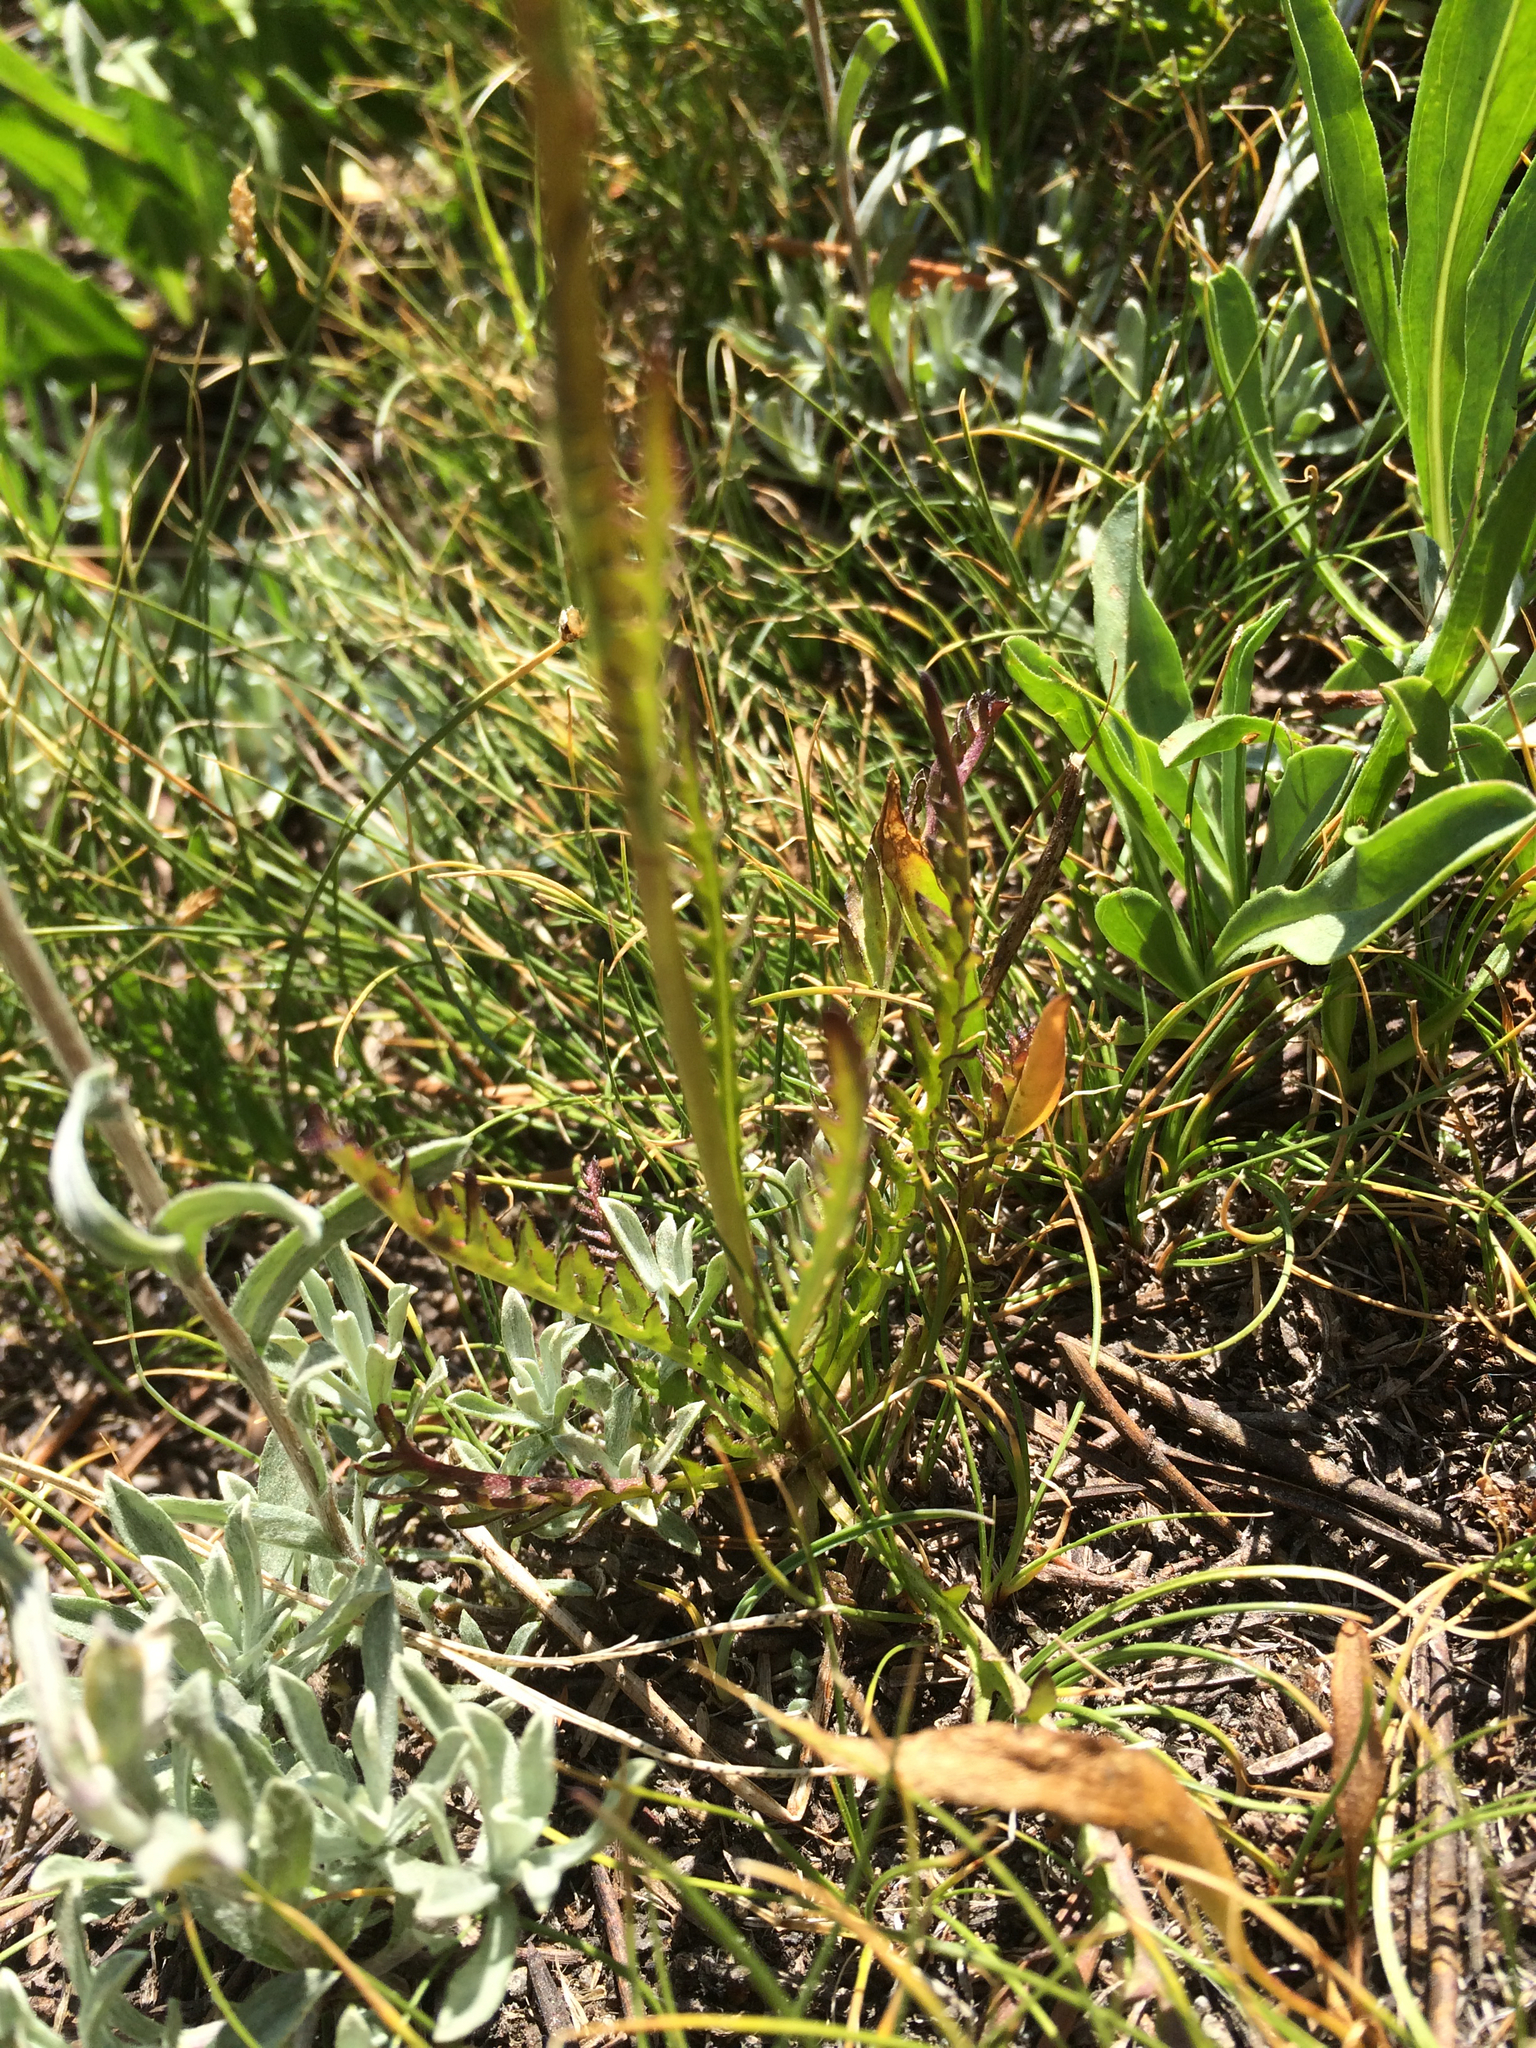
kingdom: Plantae
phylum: Tracheophyta
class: Magnoliopsida
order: Lamiales
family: Orobanchaceae
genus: Pedicularis
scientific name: Pedicularis attollens
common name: Slender pedicularis
